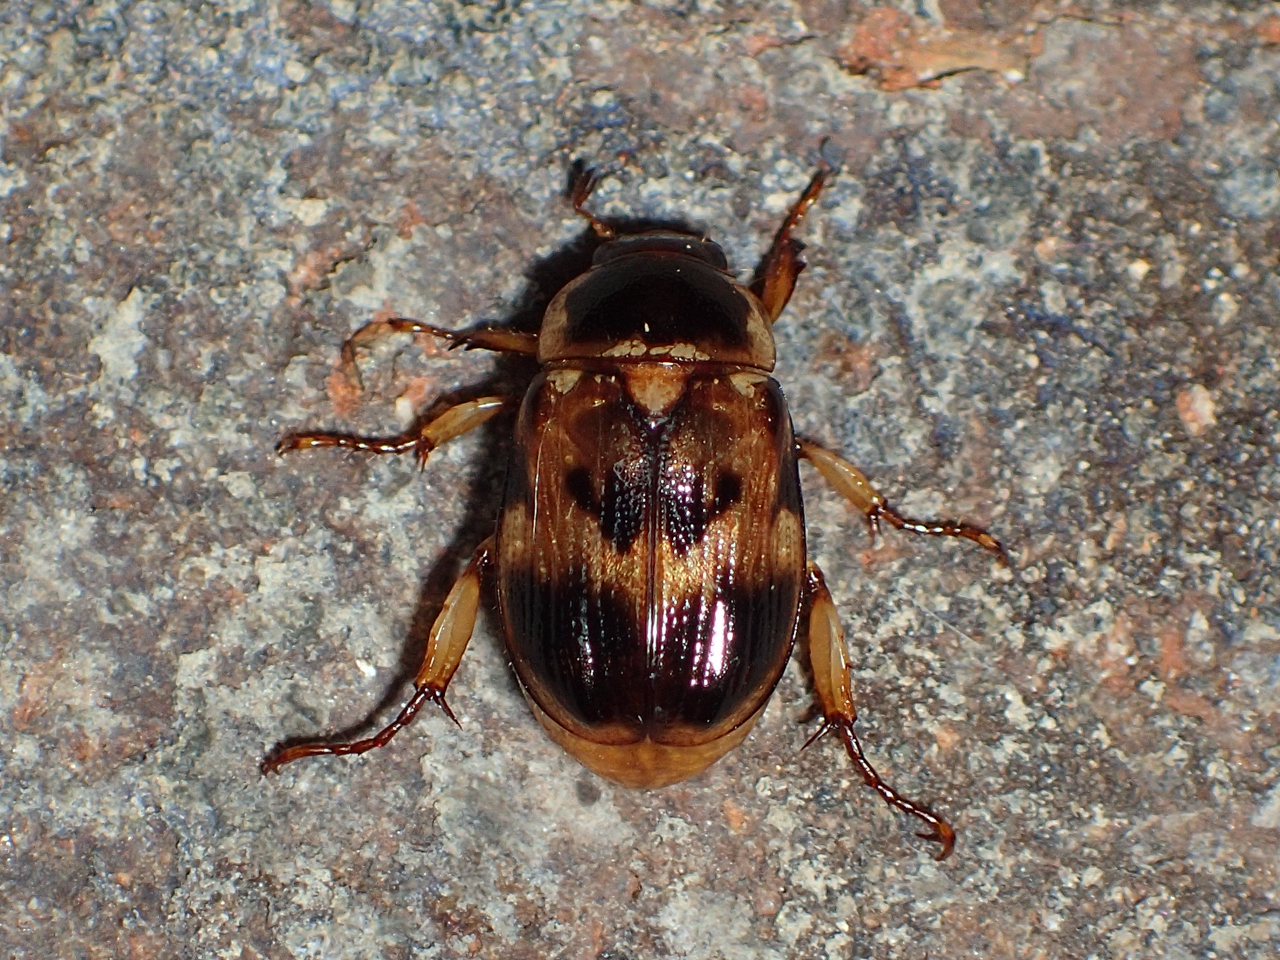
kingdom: Animalia
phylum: Arthropoda
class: Insecta
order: Coleoptera
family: Scarabaeidae
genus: Anomala
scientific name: Anomala innuba
